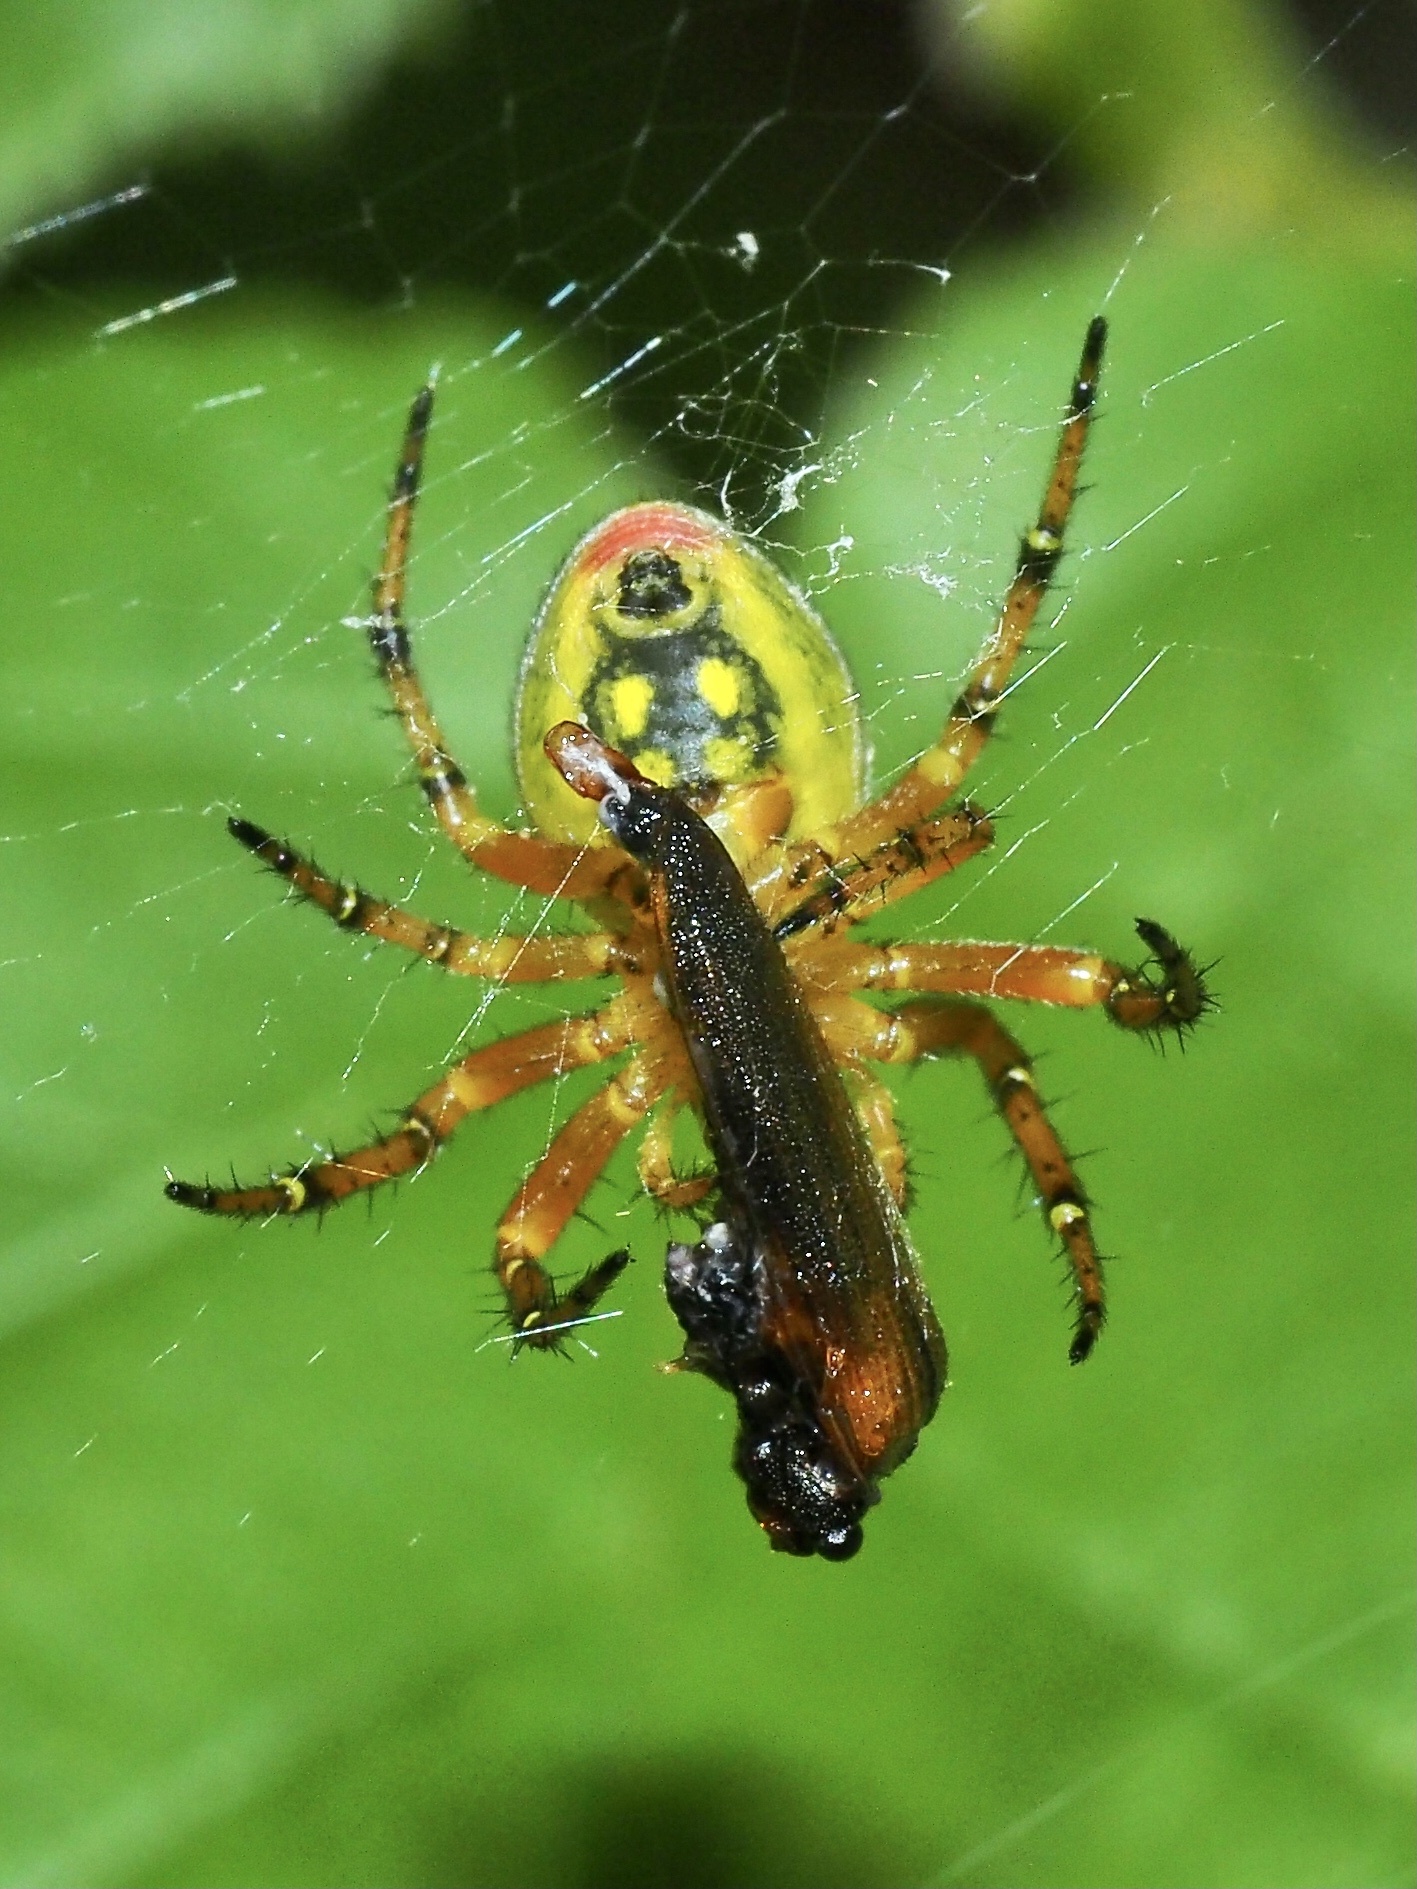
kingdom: Animalia
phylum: Arthropoda
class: Arachnida
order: Araneae
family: Araneidae
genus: Araniella
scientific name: Araniella alpica
